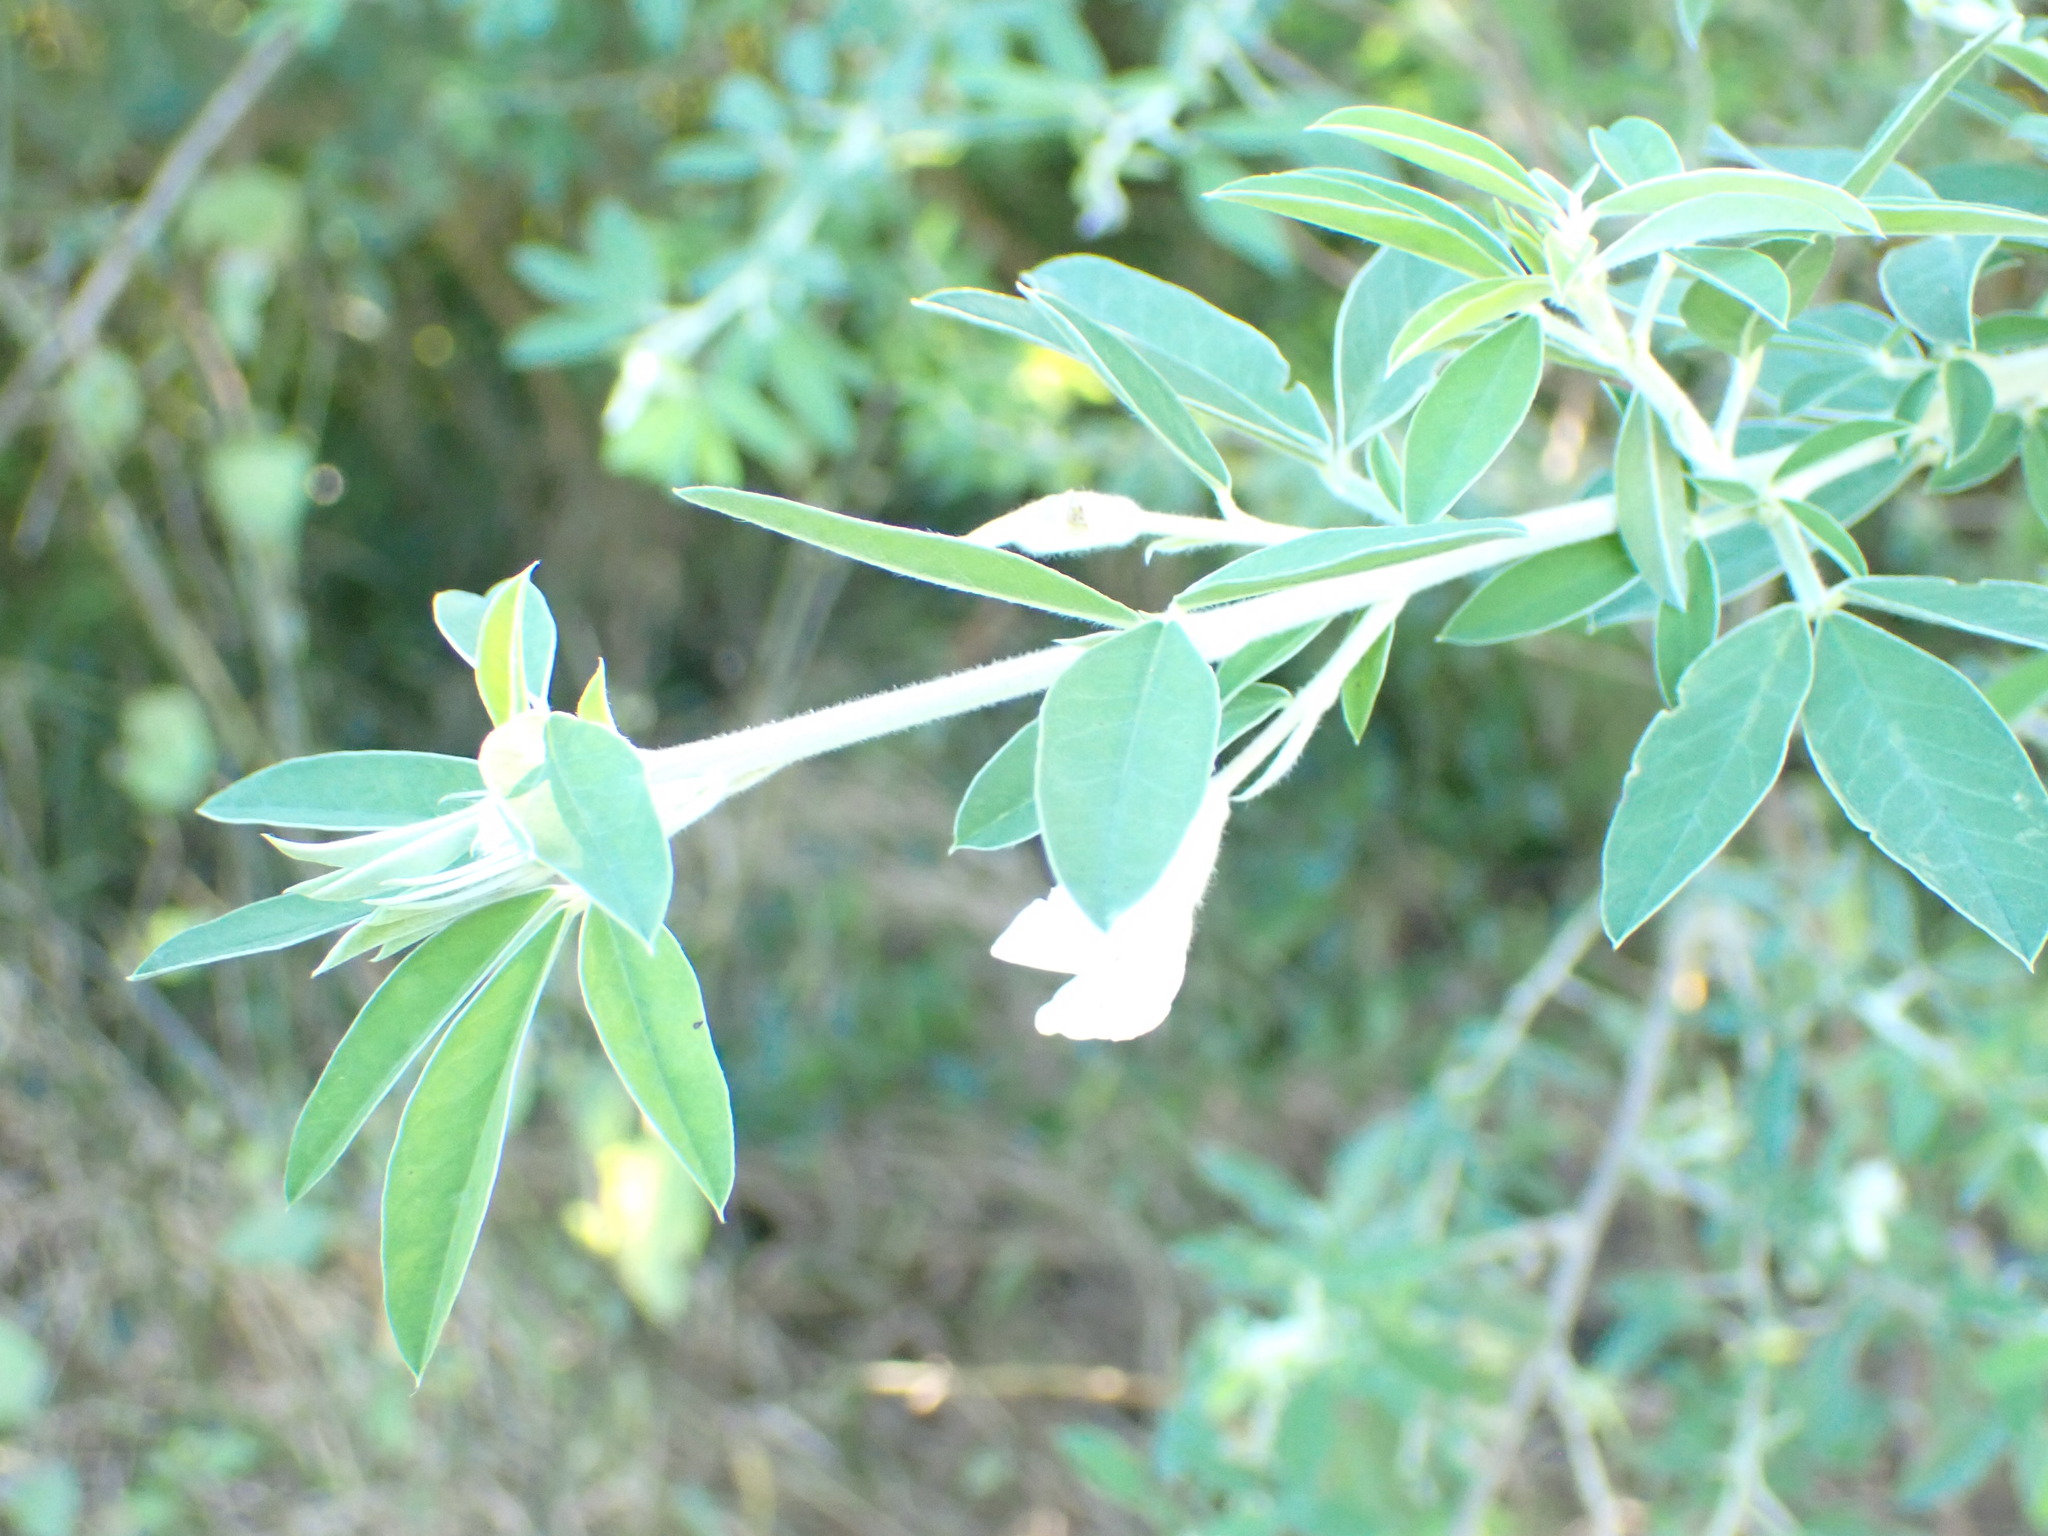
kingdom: Plantae
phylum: Tracheophyta
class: Magnoliopsida
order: Fabales
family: Fabaceae
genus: Chamaecytisus
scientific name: Chamaecytisus prolifer
